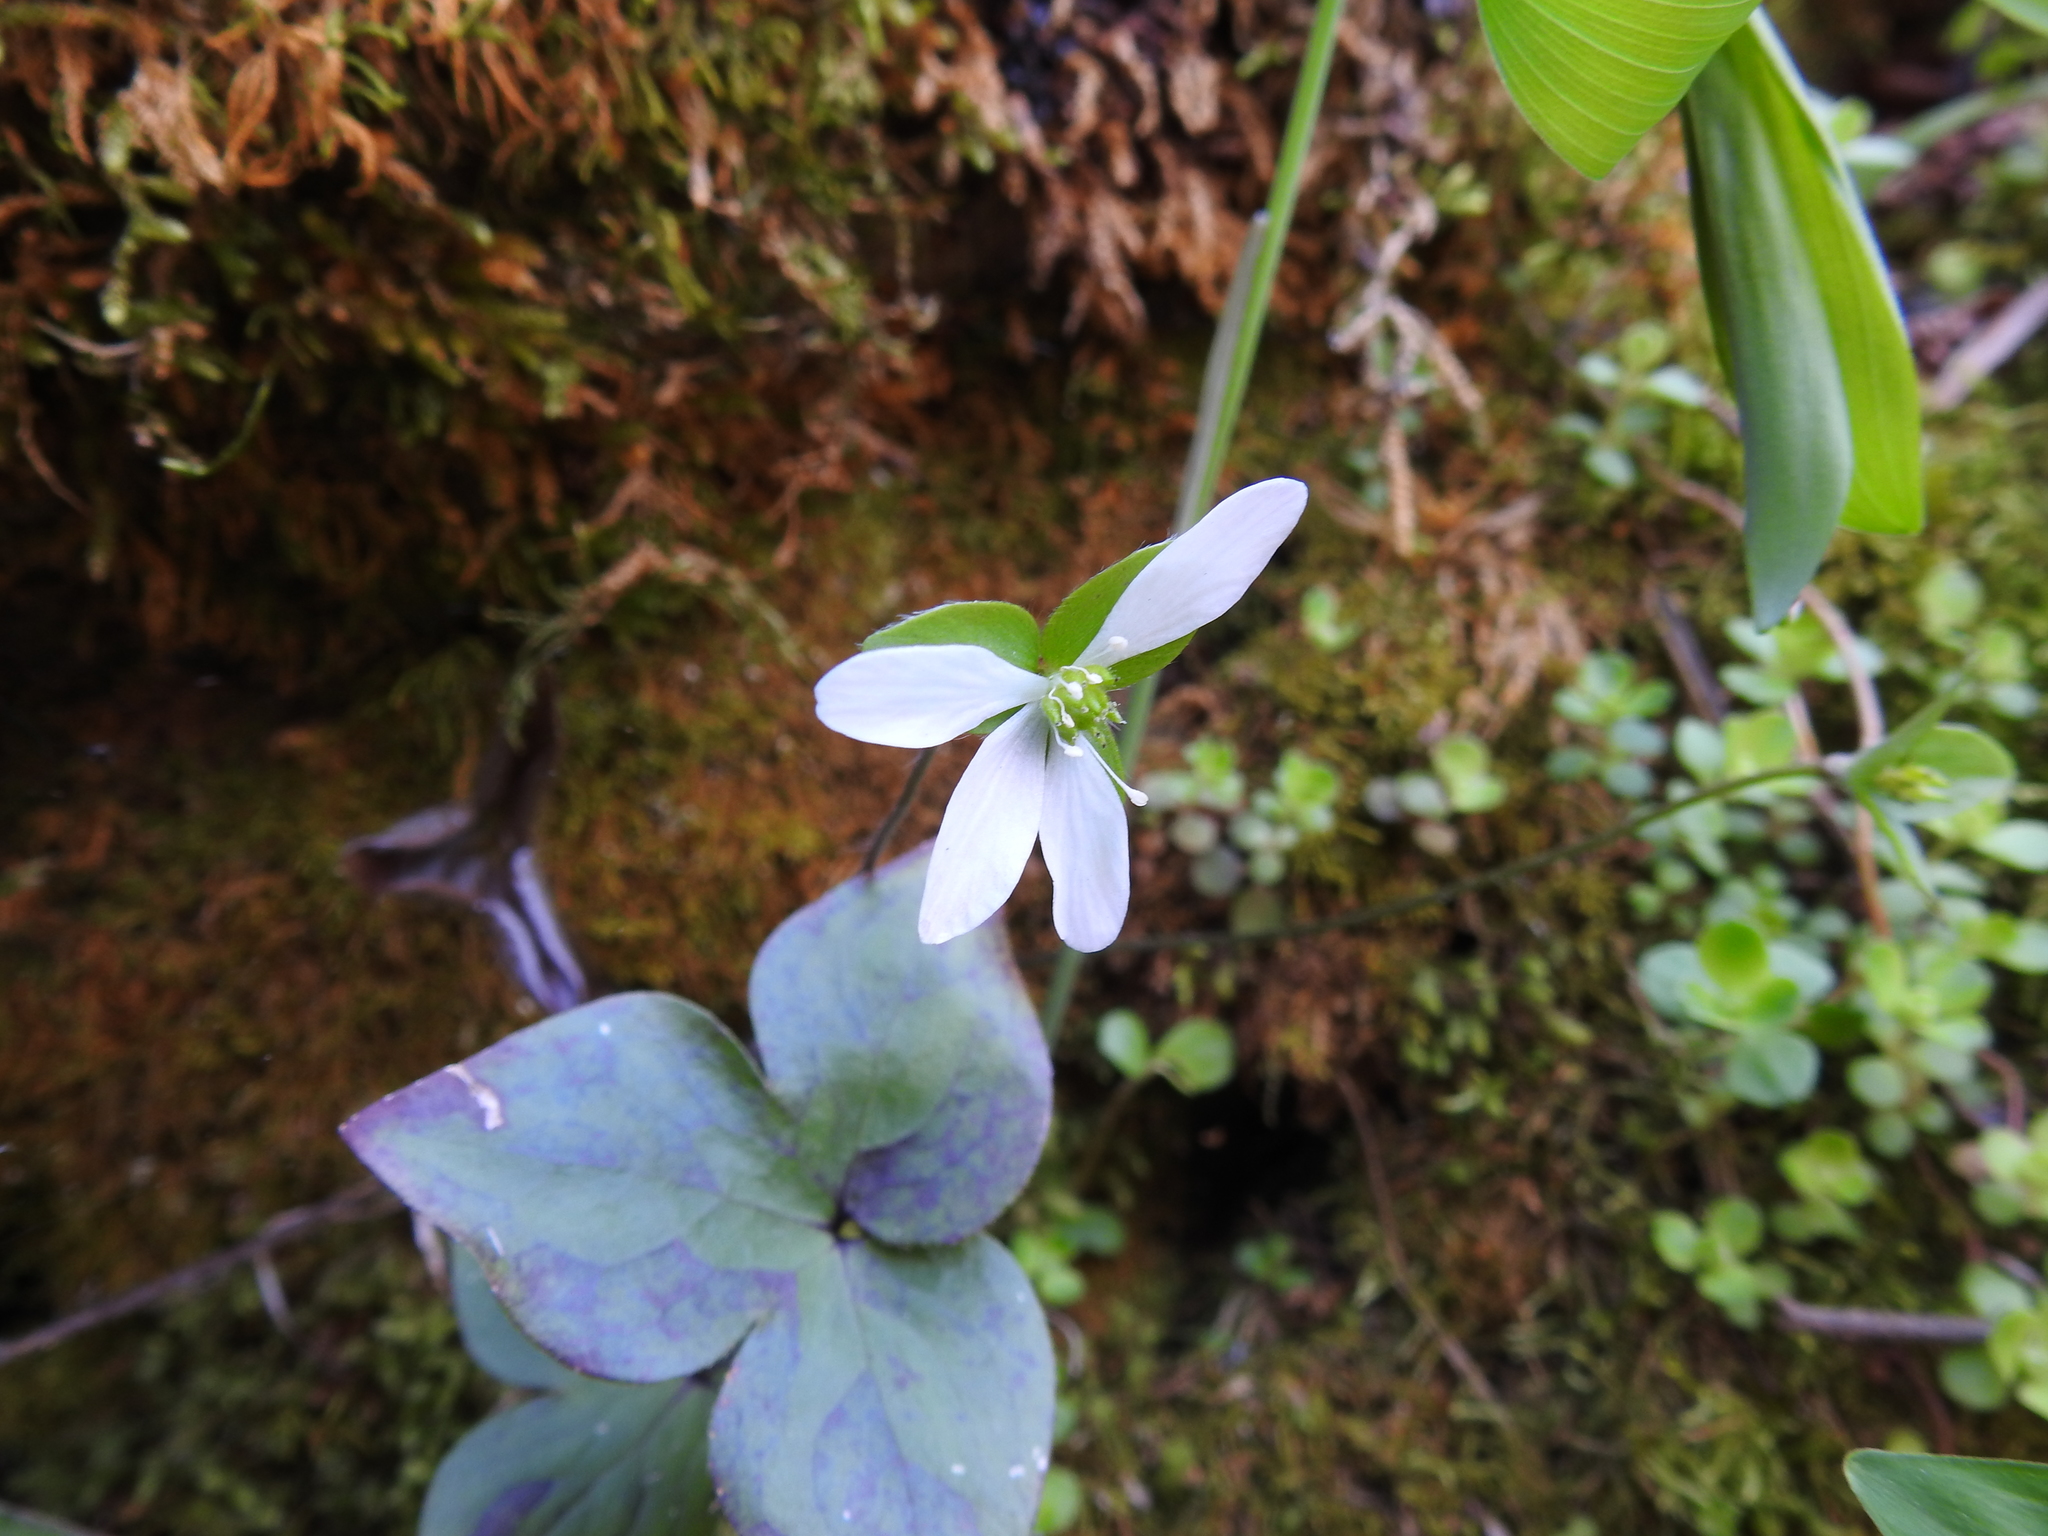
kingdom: Plantae
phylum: Tracheophyta
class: Magnoliopsida
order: Ranunculales
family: Ranunculaceae
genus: Hepatica
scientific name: Hepatica acutiloba
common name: Sharp-lobed hepatica
